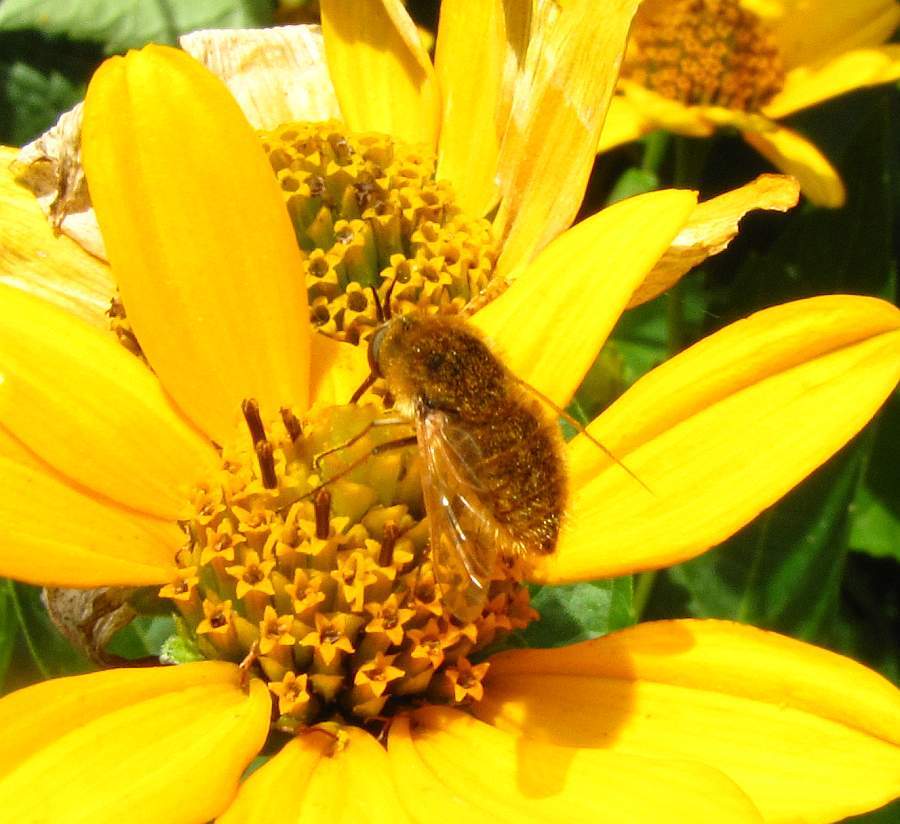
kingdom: Animalia
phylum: Arthropoda
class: Insecta
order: Diptera
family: Bombyliidae
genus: Sparnopolius
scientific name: Sparnopolius confusus
